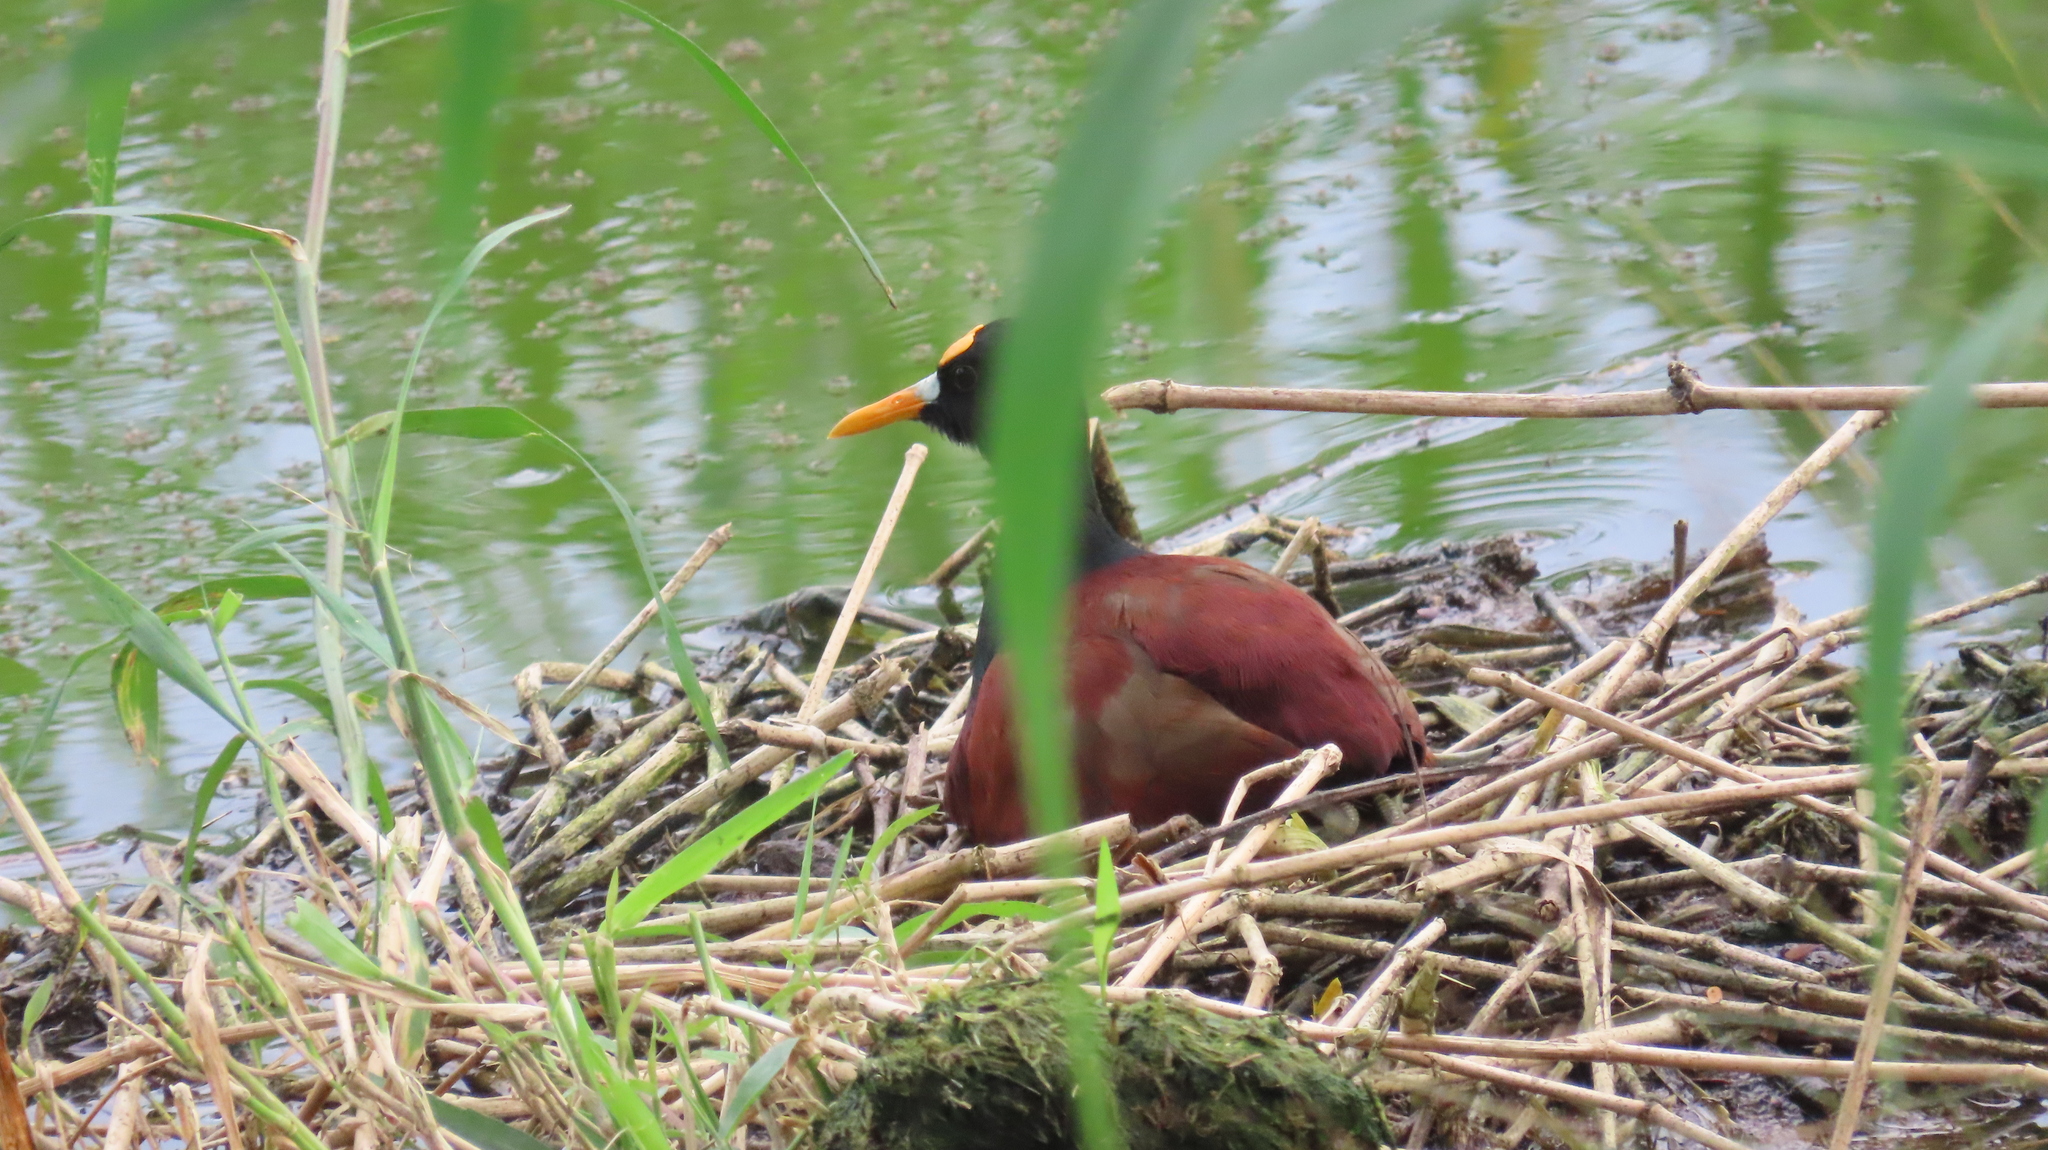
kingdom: Animalia
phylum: Chordata
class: Aves
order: Charadriiformes
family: Jacanidae
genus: Jacana
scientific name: Jacana spinosa
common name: Northern jacana
